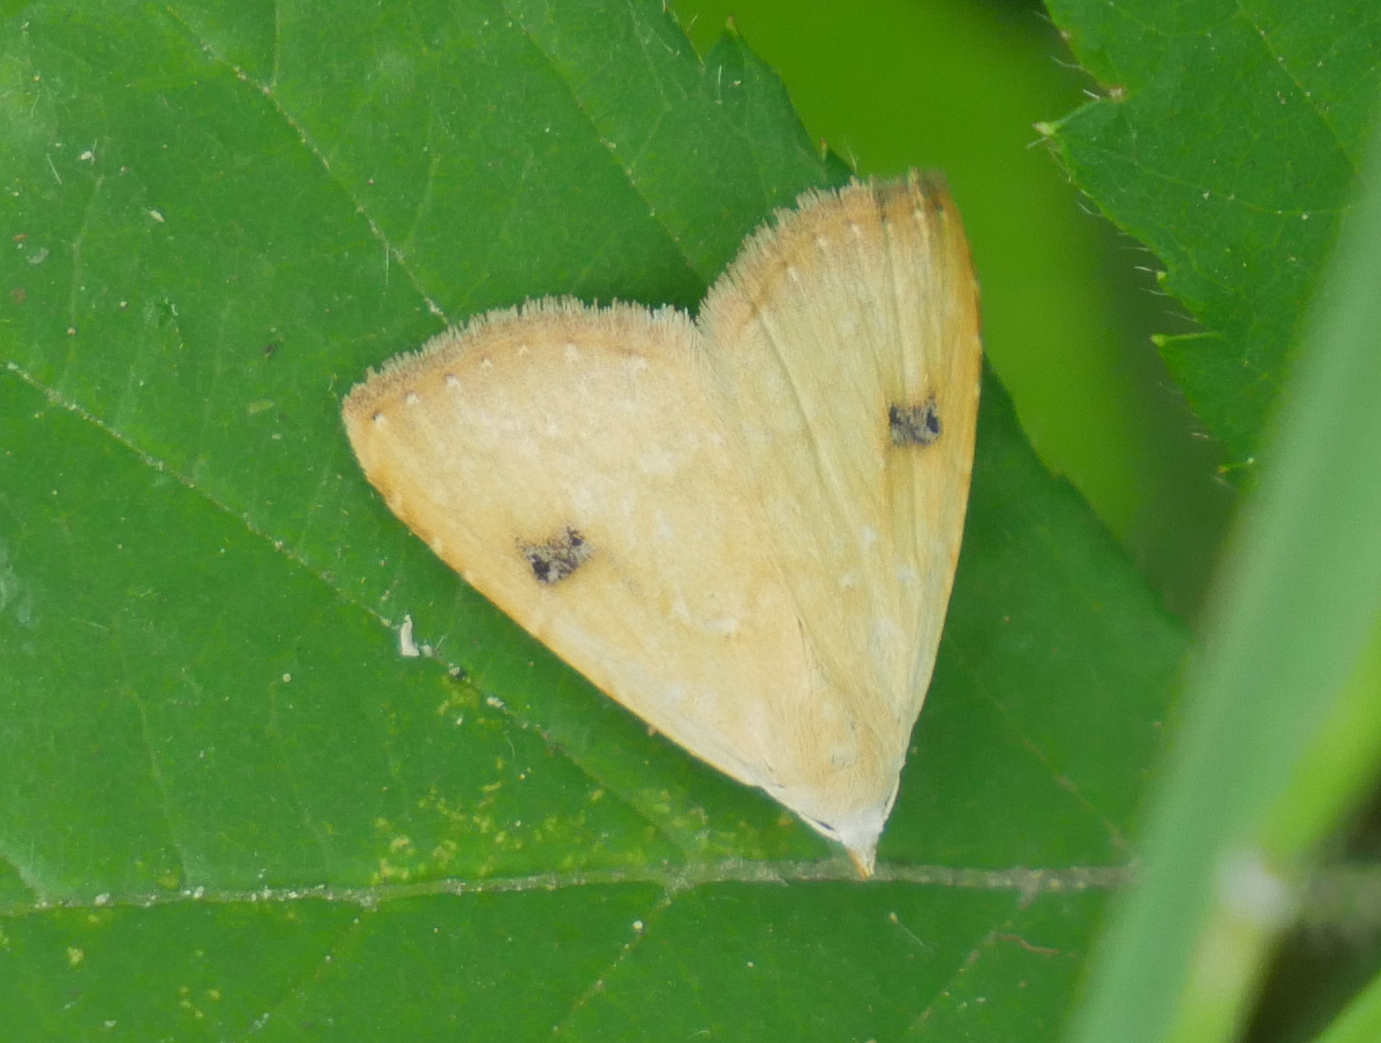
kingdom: Animalia
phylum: Arthropoda
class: Insecta
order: Lepidoptera
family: Erebidae
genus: Rivula
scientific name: Rivula sericealis
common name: Straw dot
